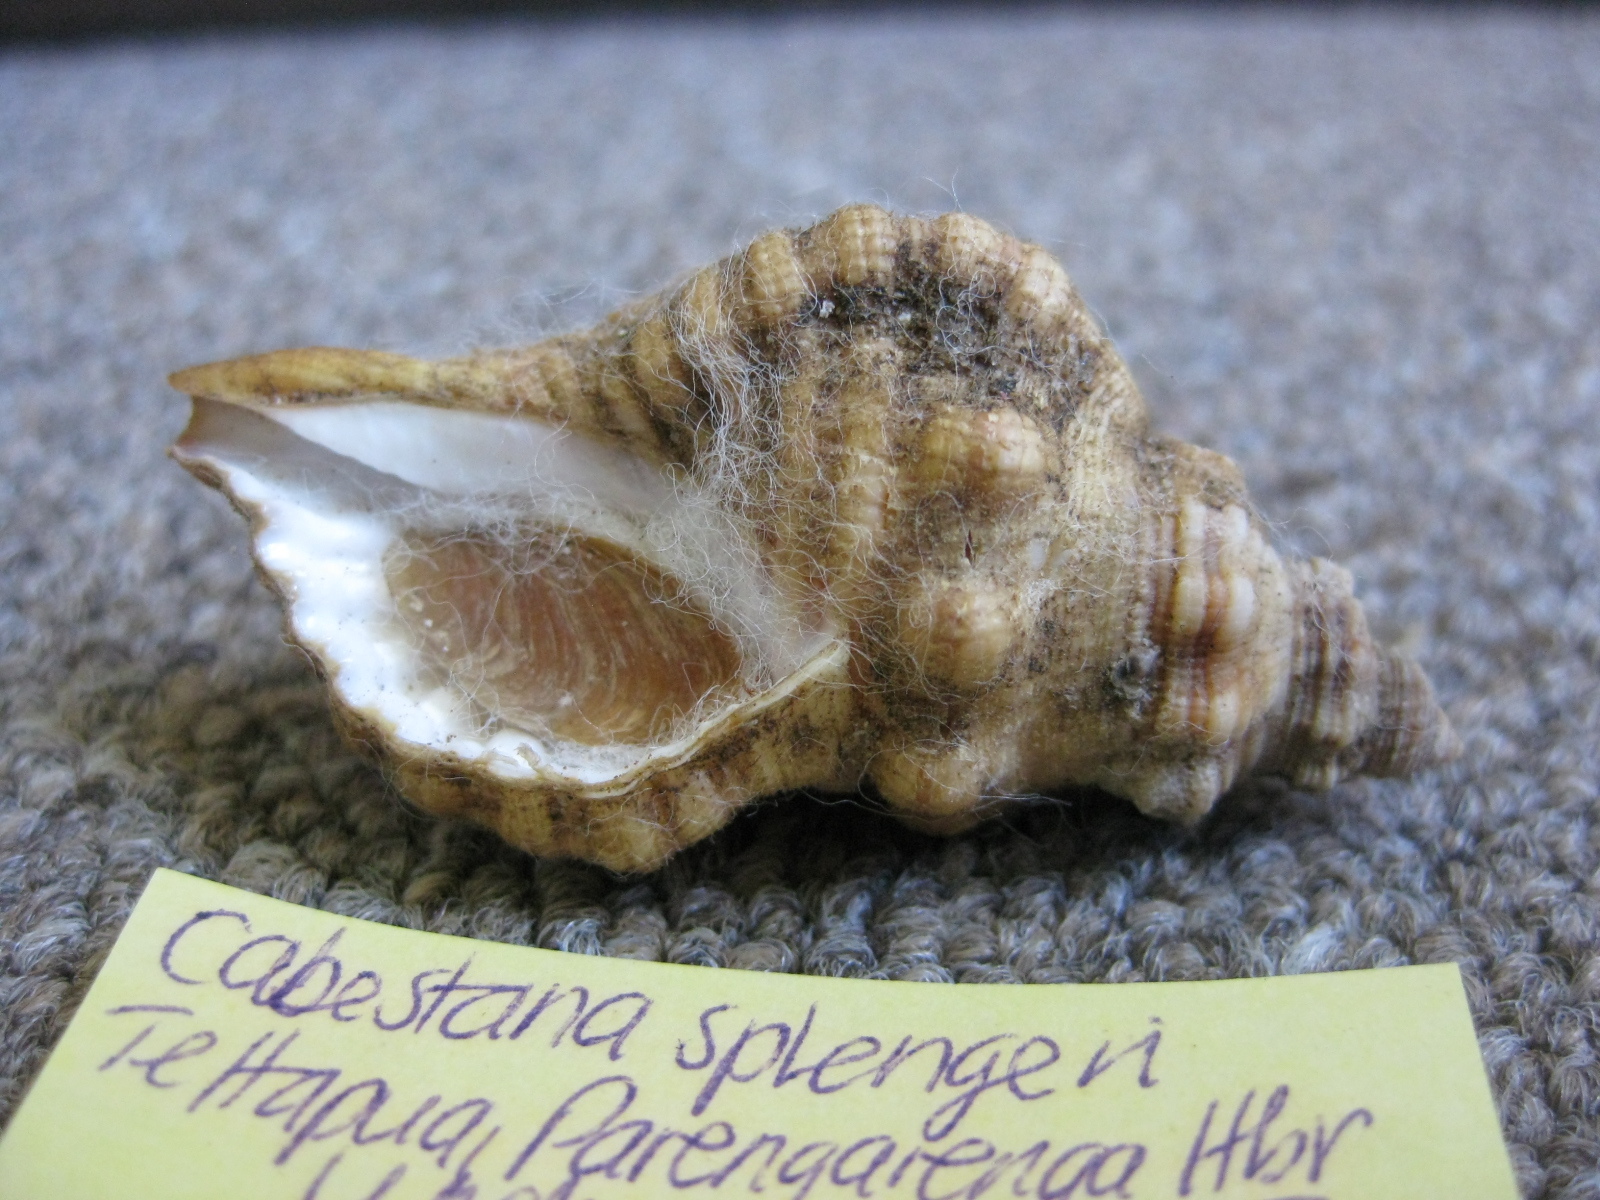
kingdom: Animalia
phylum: Mollusca
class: Gastropoda
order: Littorinimorpha
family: Cymatiidae
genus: Cabestana
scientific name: Cabestana spengleri
